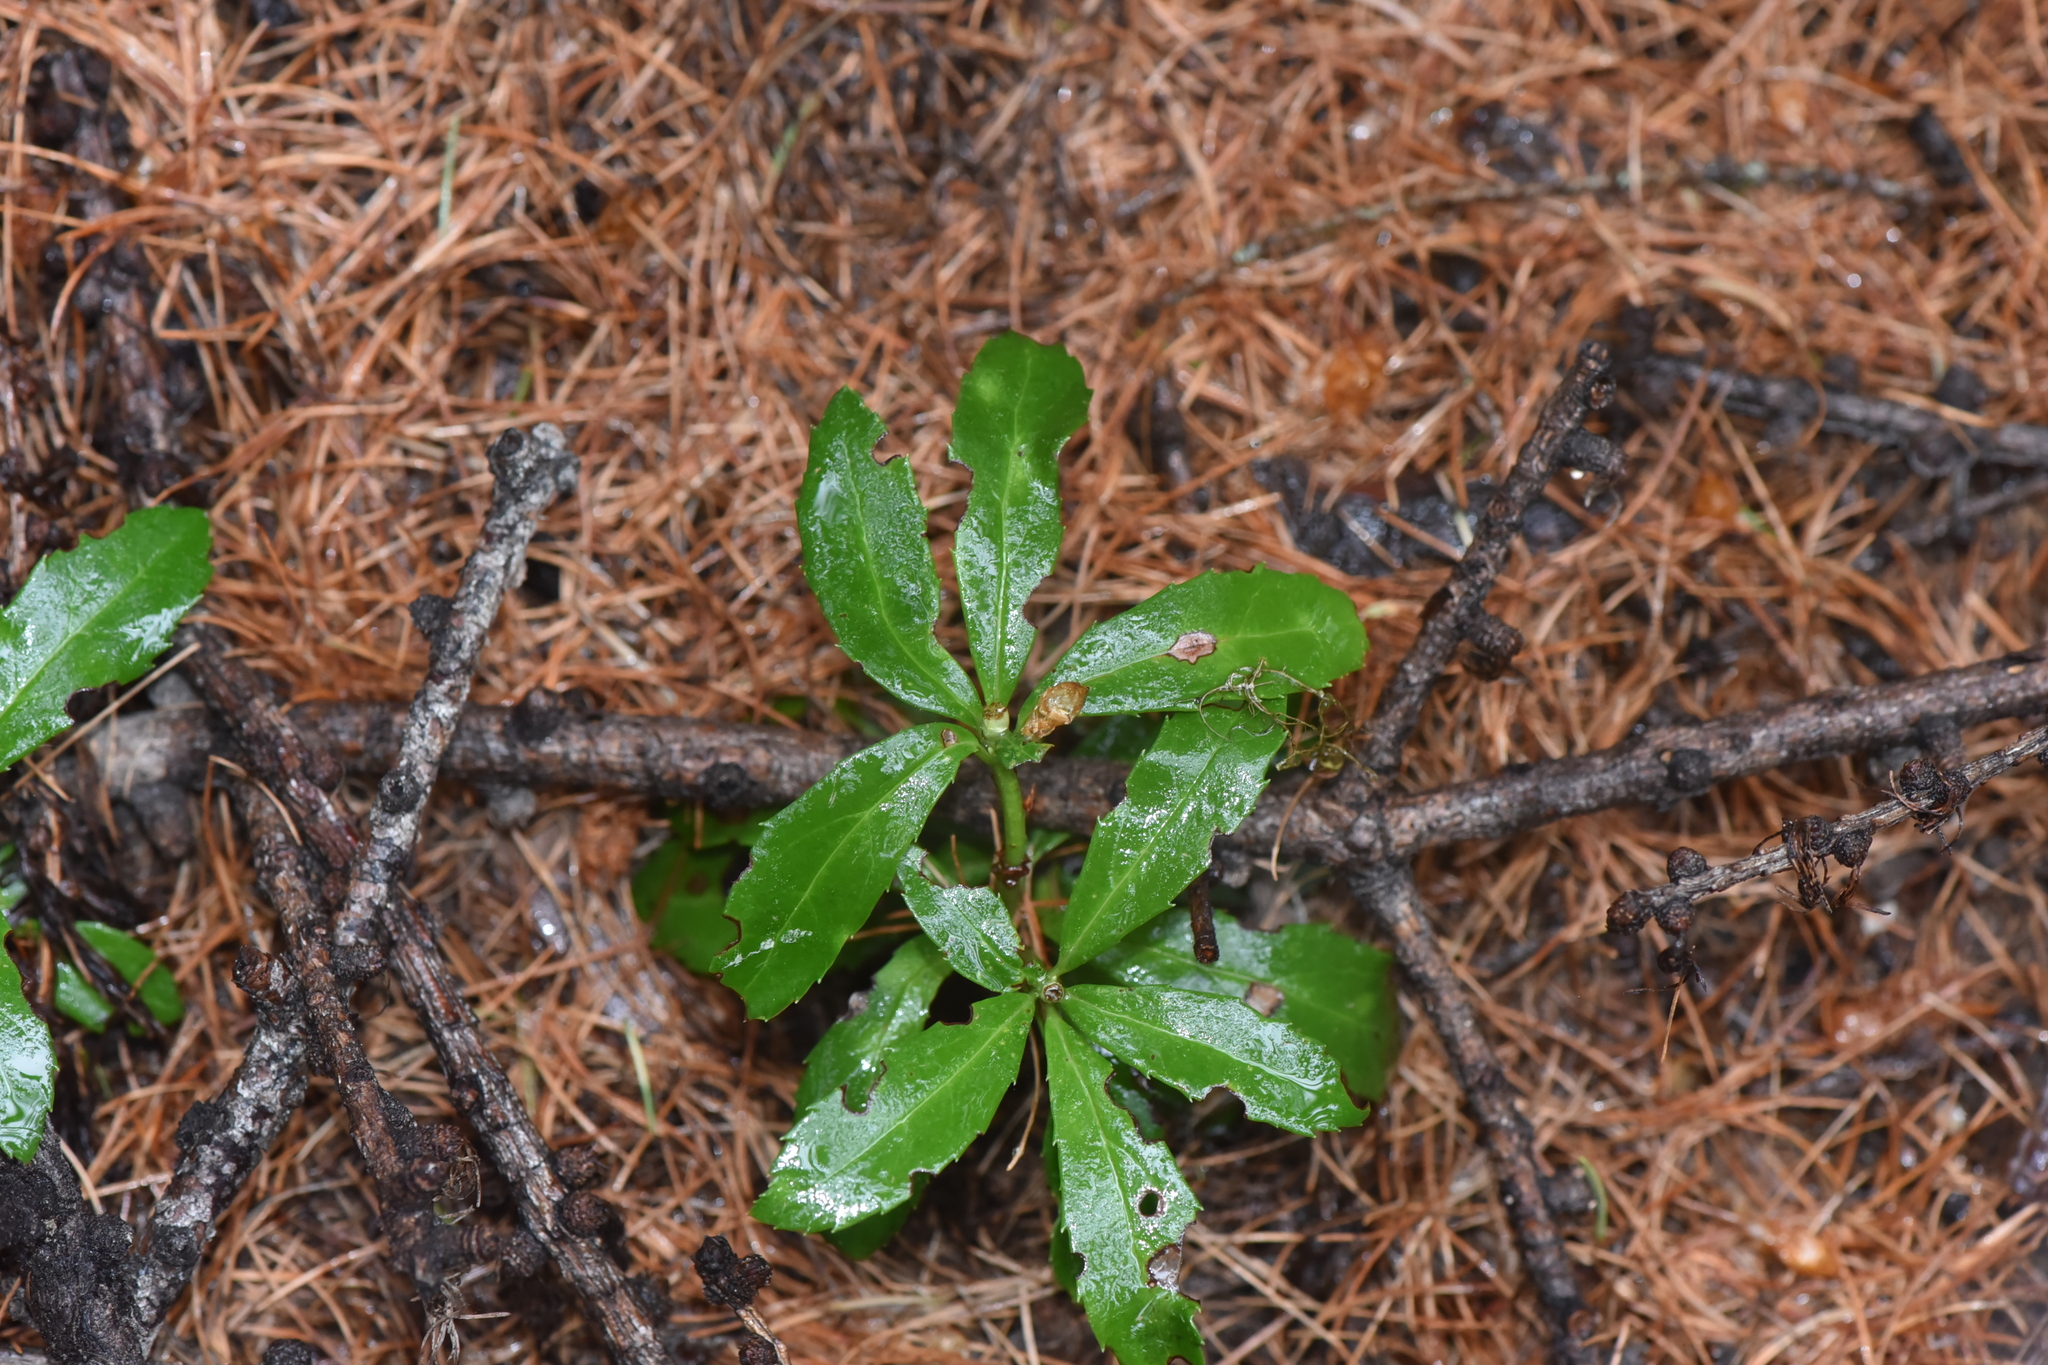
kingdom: Plantae
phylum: Tracheophyta
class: Magnoliopsida
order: Ericales
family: Ericaceae
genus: Chimaphila
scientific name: Chimaphila umbellata
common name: Pipsissewa
